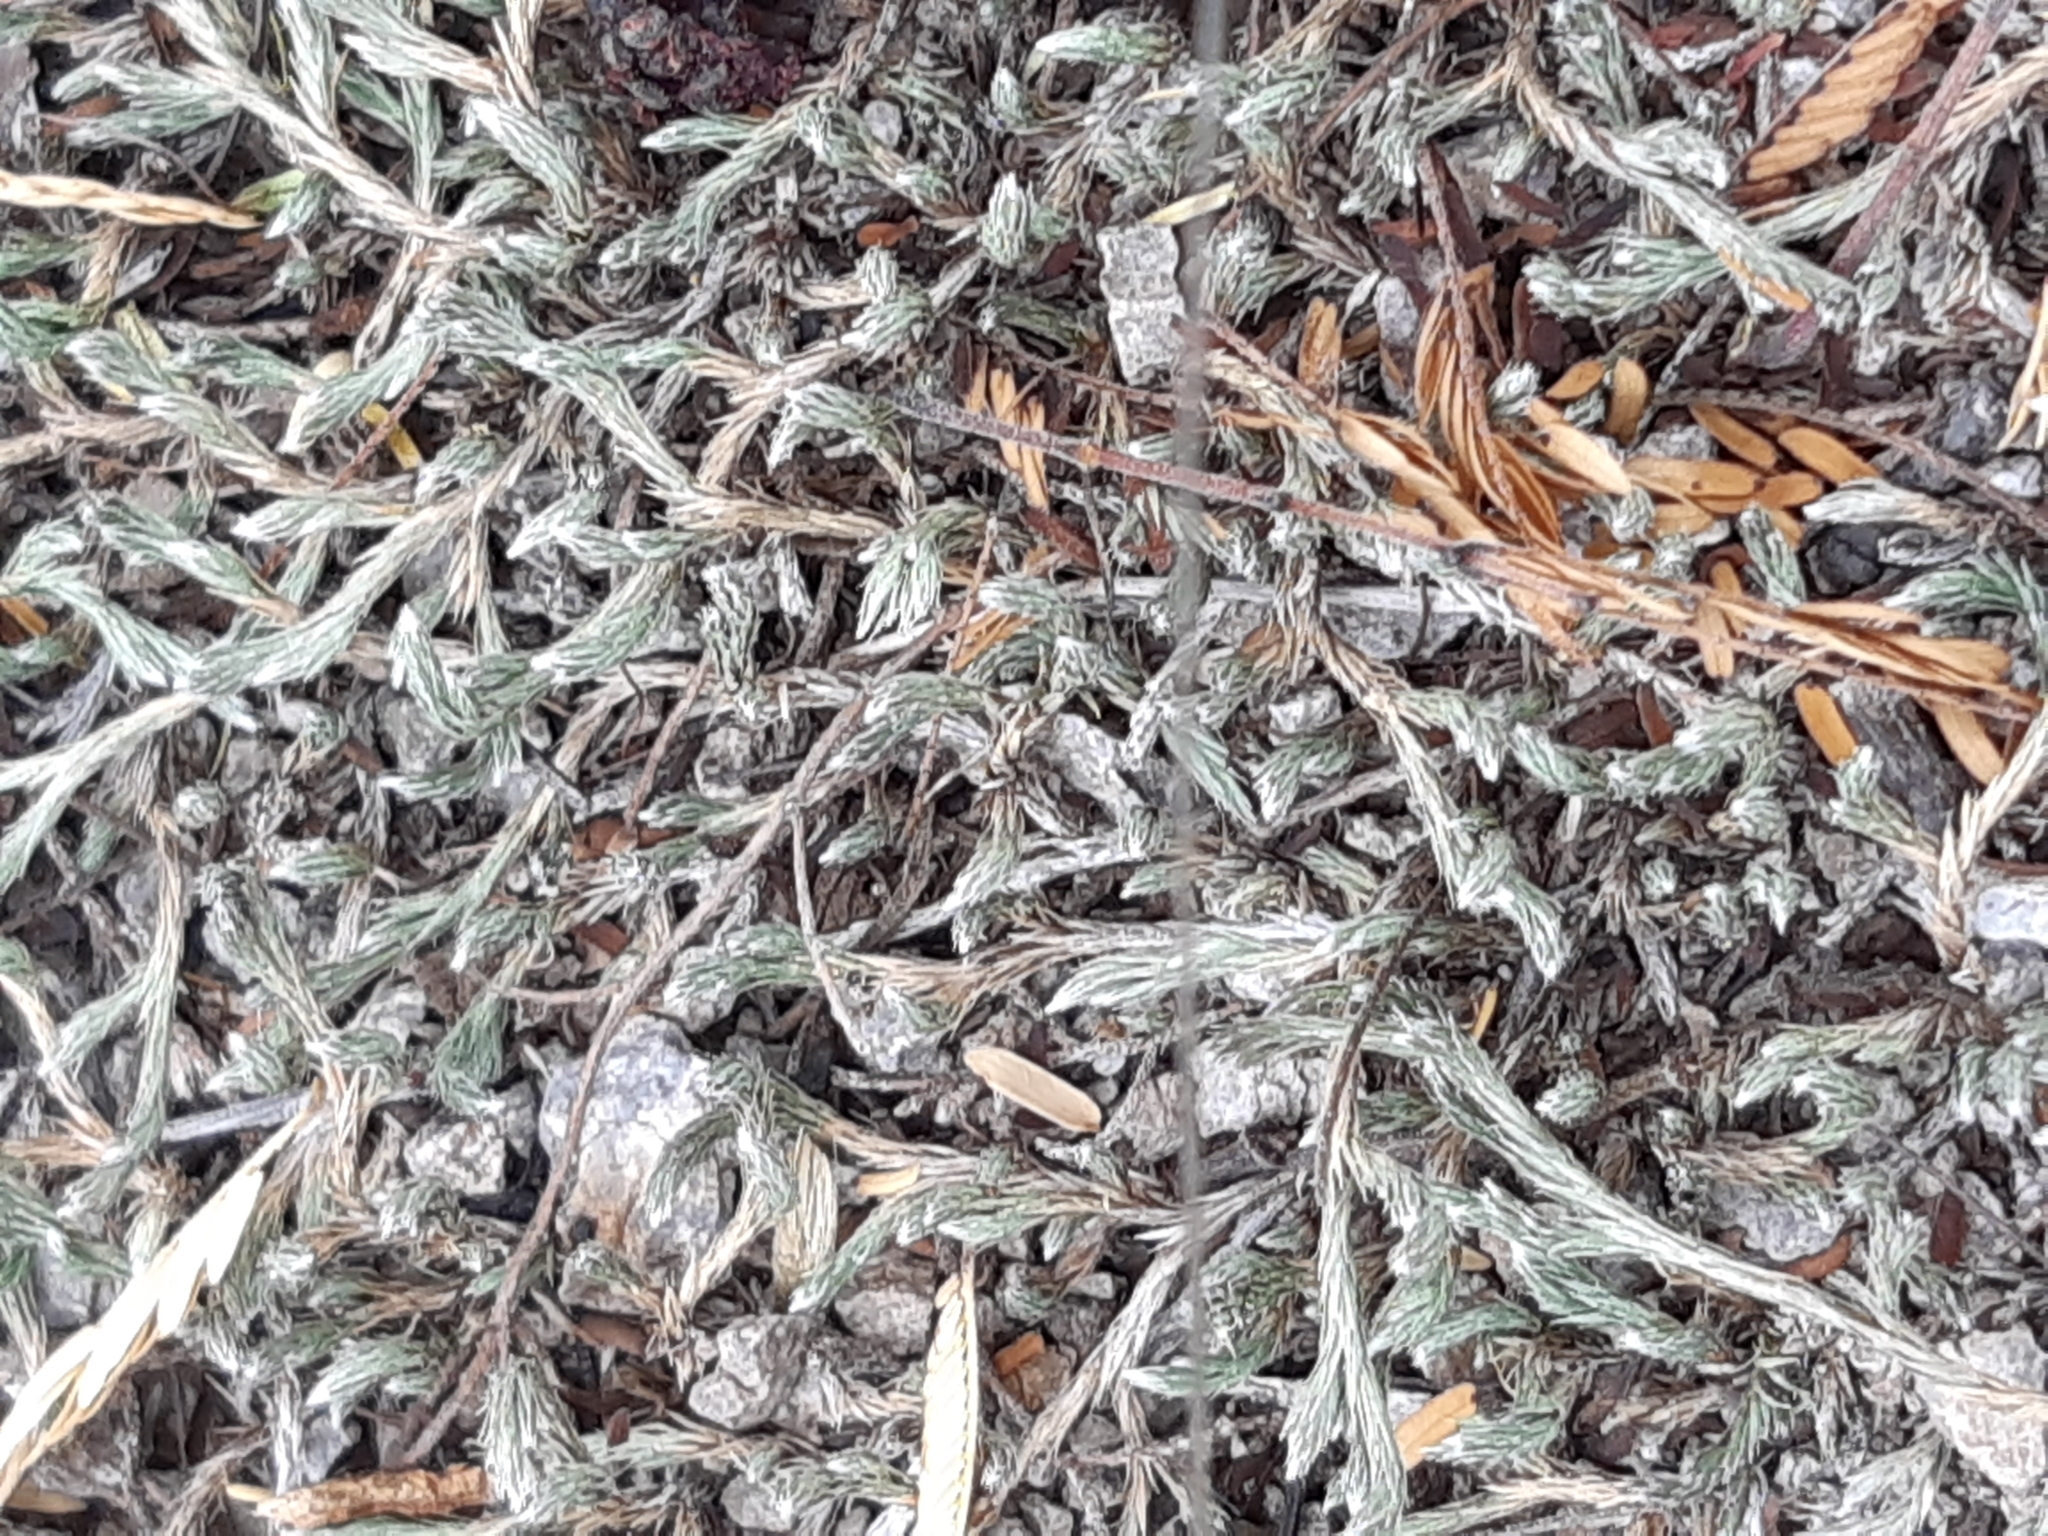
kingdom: Plantae
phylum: Tracheophyta
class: Lycopodiopsida
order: Selaginellales
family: Selaginellaceae
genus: Selaginella
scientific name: Selaginella rupincola
